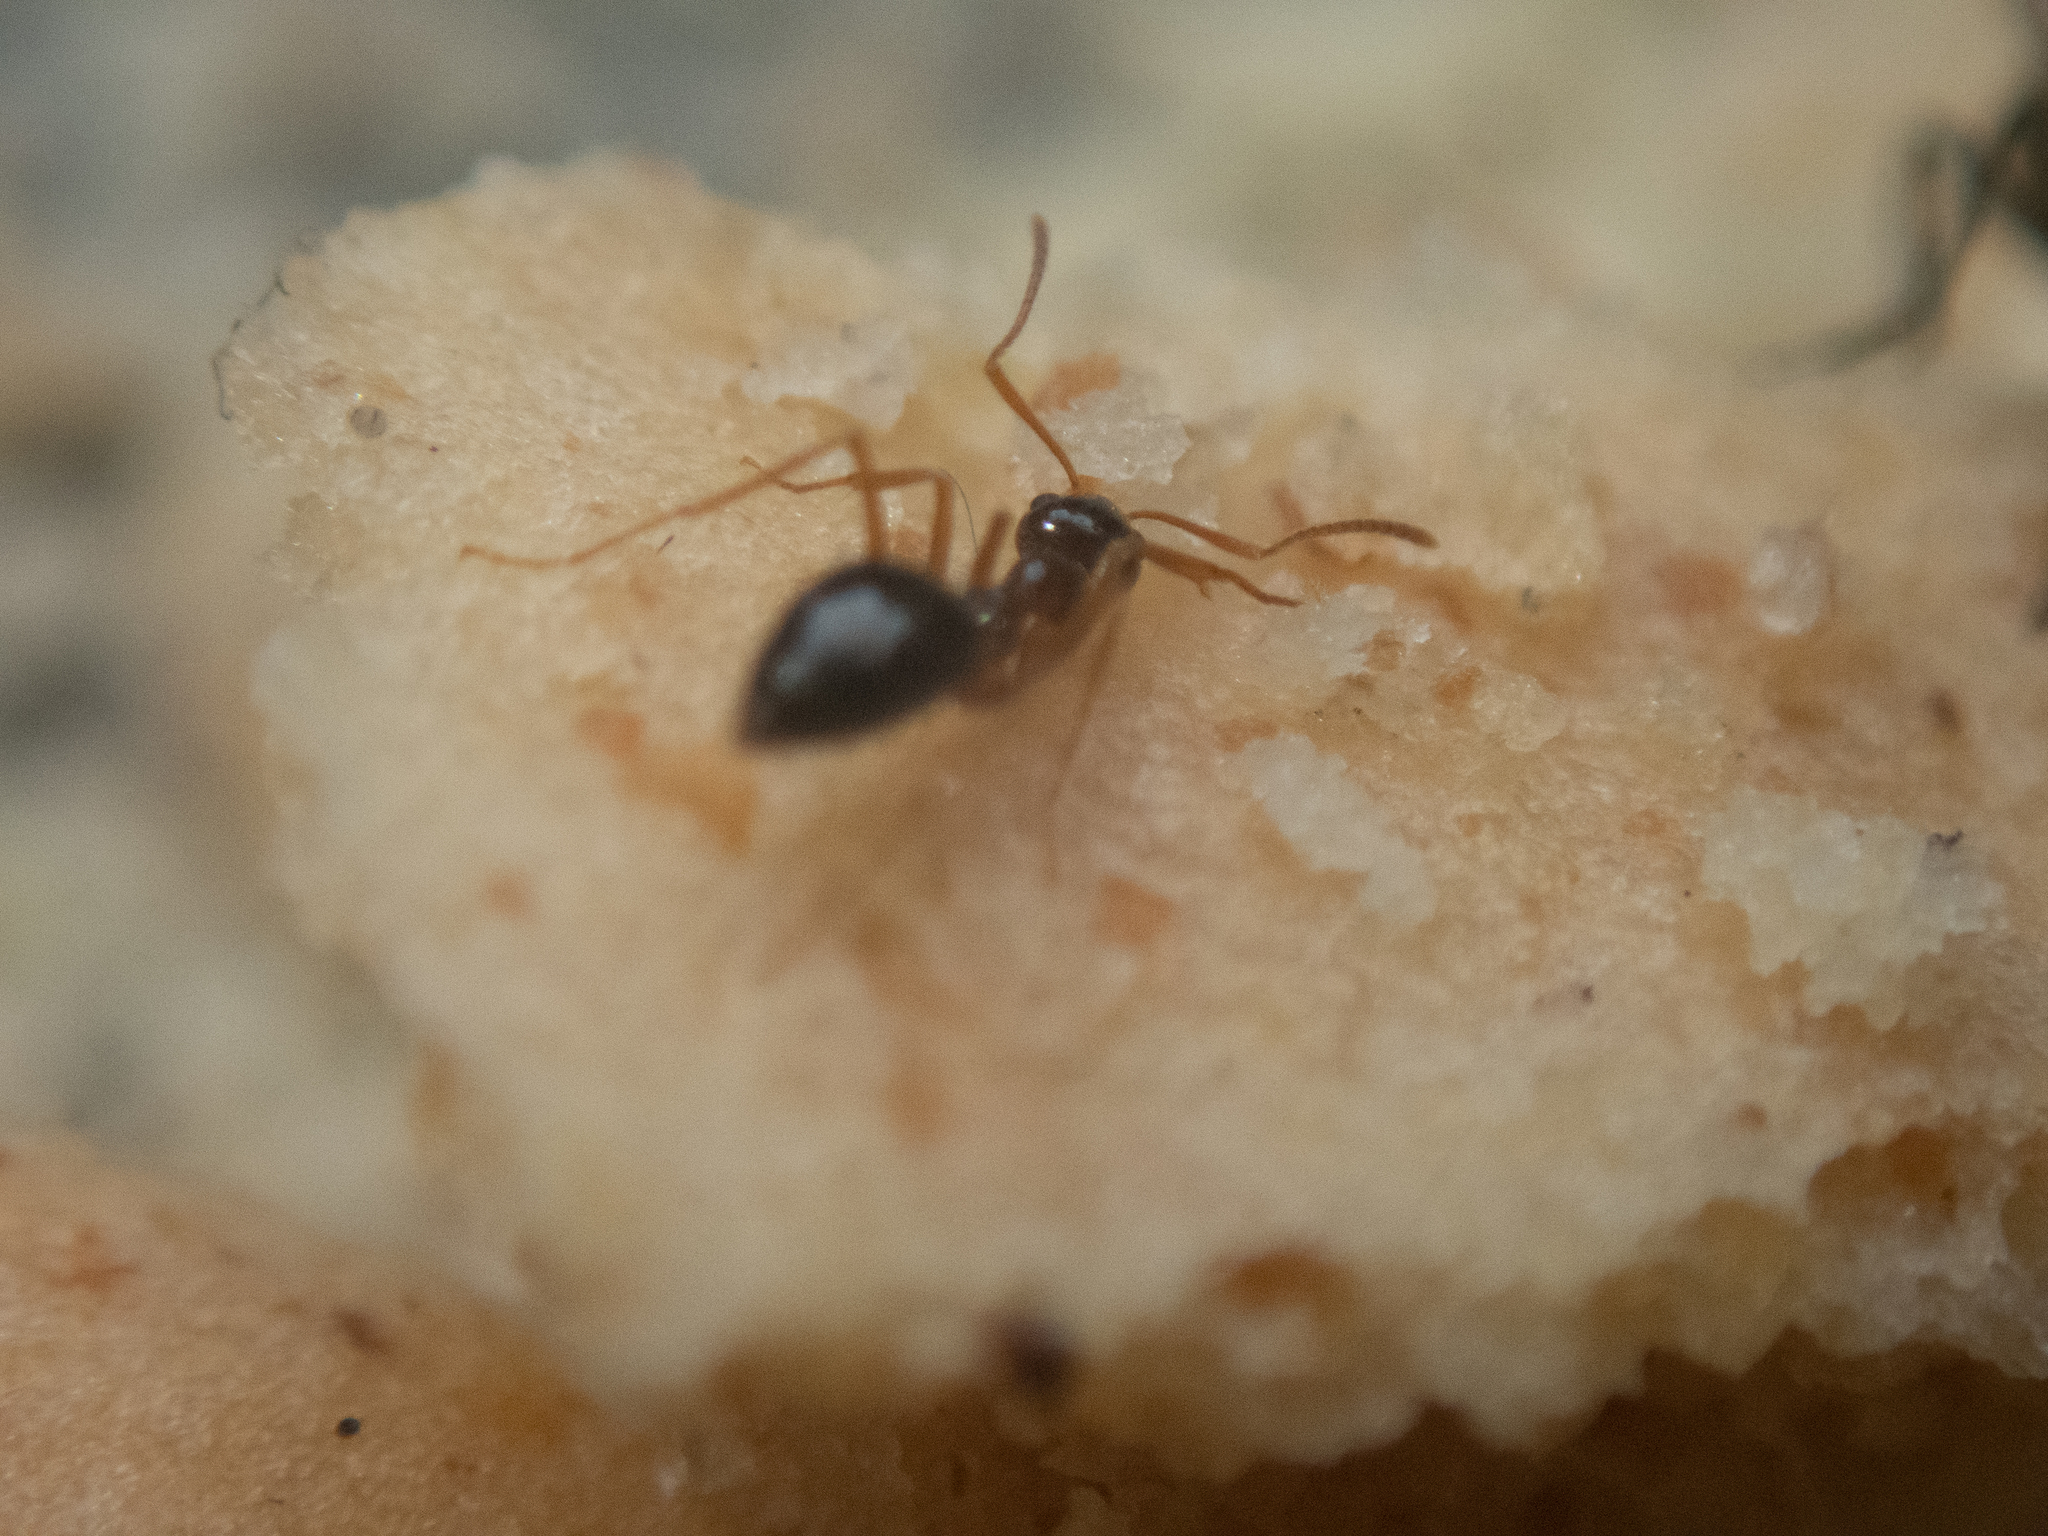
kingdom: Animalia
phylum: Arthropoda
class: Insecta
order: Hymenoptera
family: Formicidae
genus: Prenolepis
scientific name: Prenolepis imparis
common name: Small honey ant
